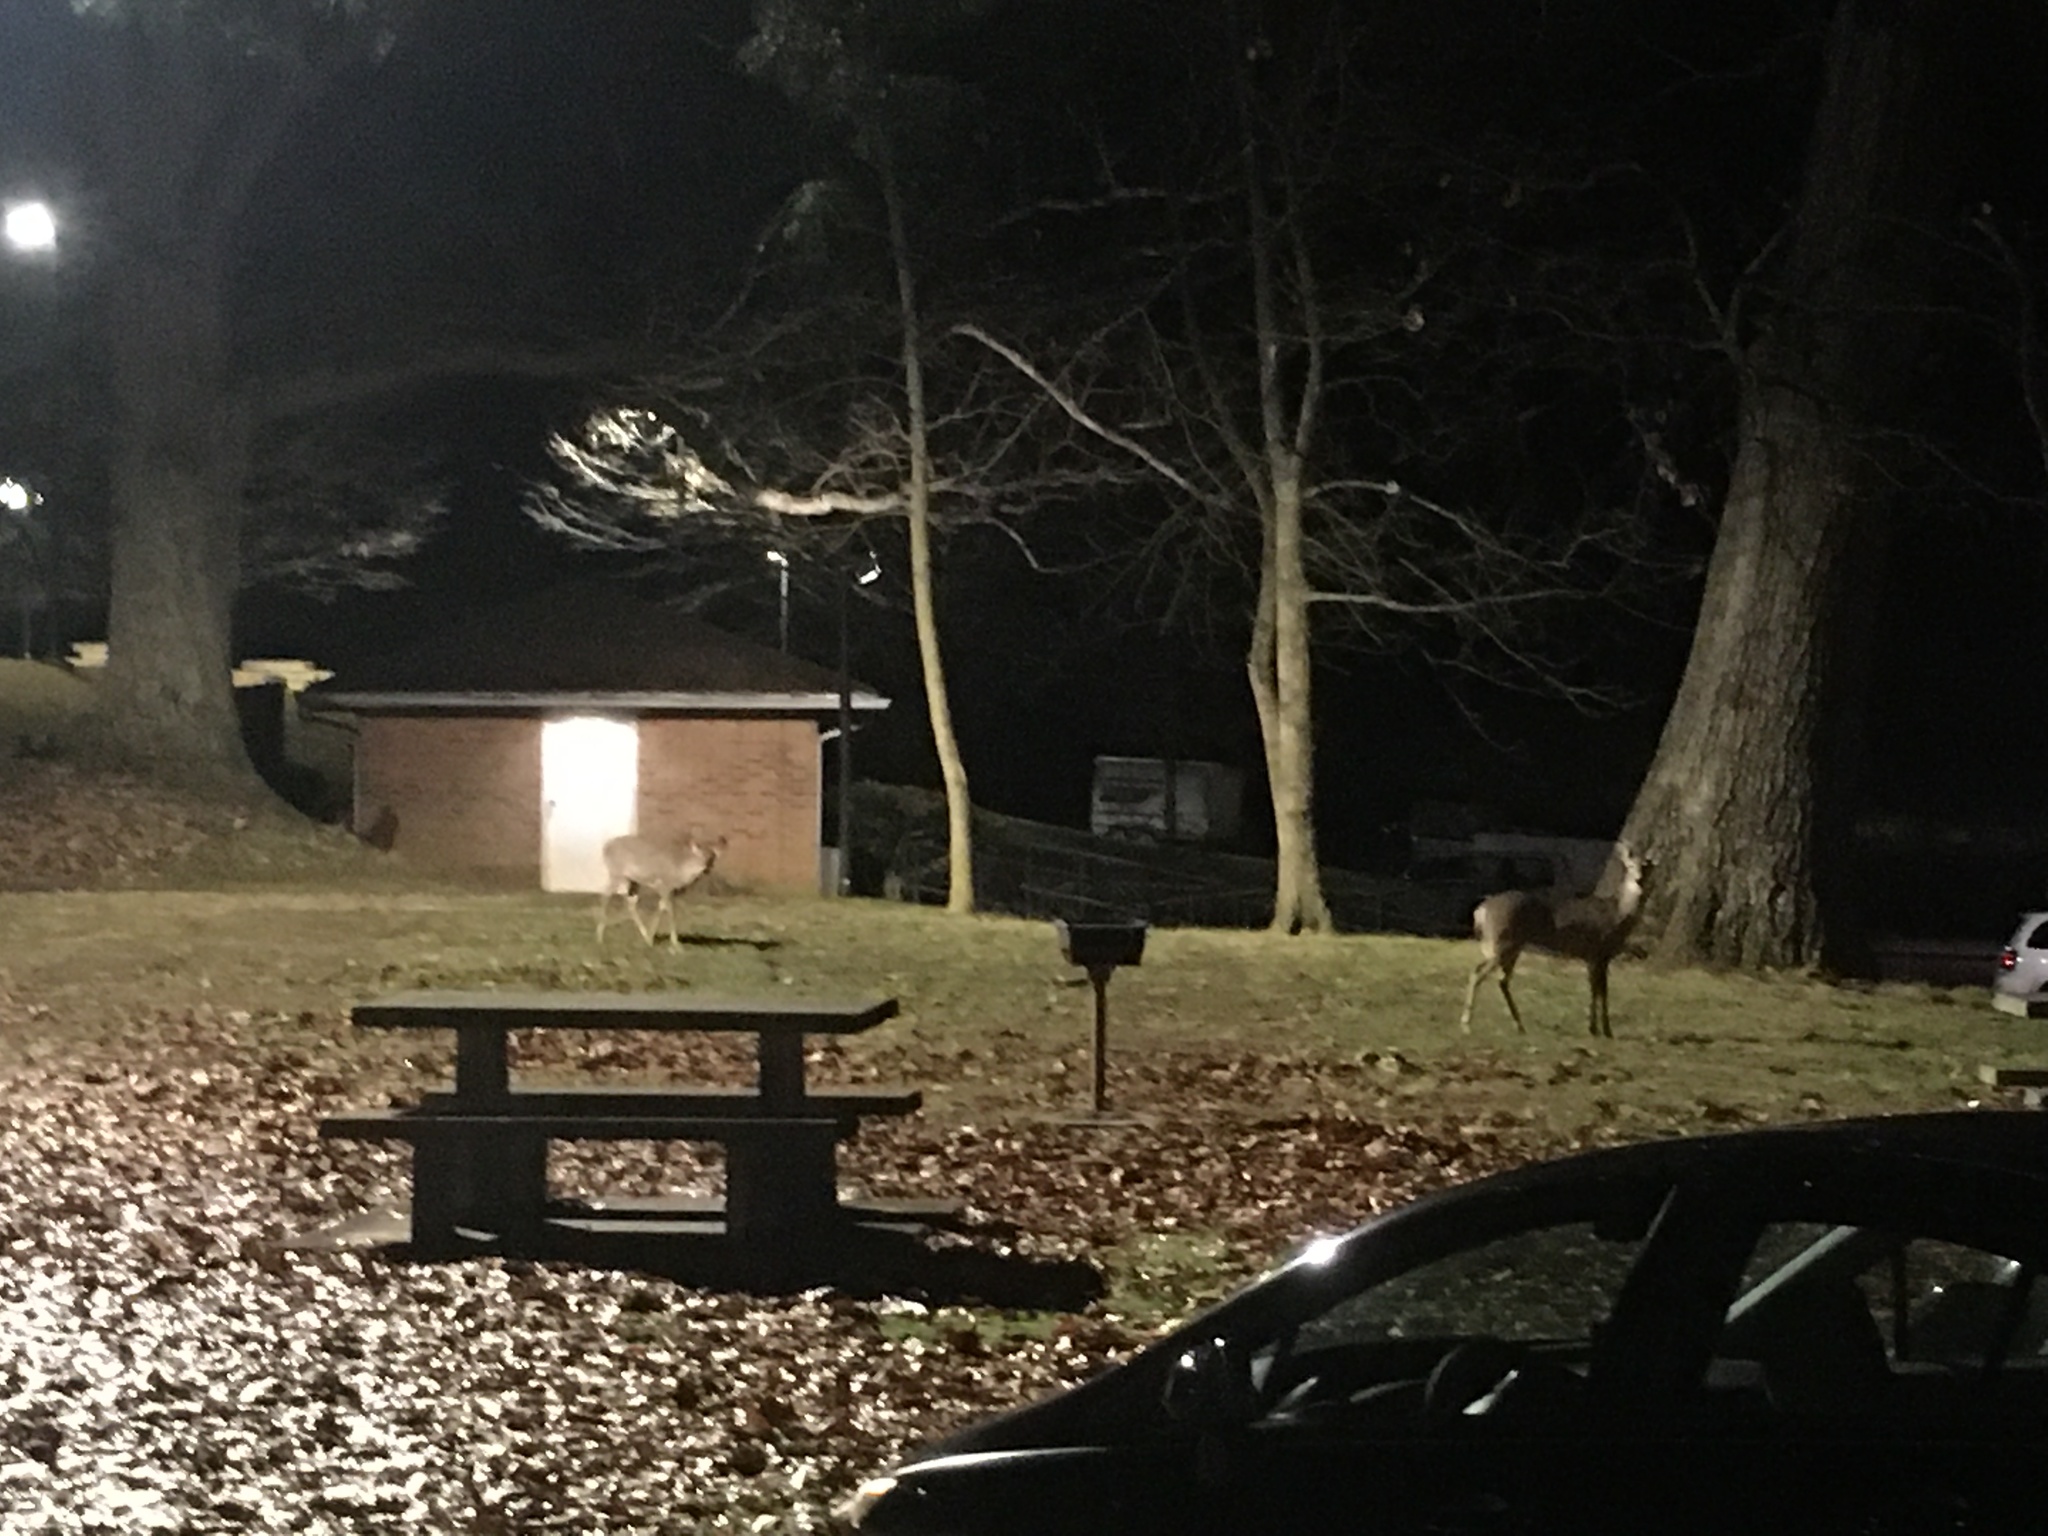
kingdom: Animalia
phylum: Chordata
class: Mammalia
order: Artiodactyla
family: Cervidae
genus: Odocoileus
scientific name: Odocoileus virginianus
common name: White-tailed deer
